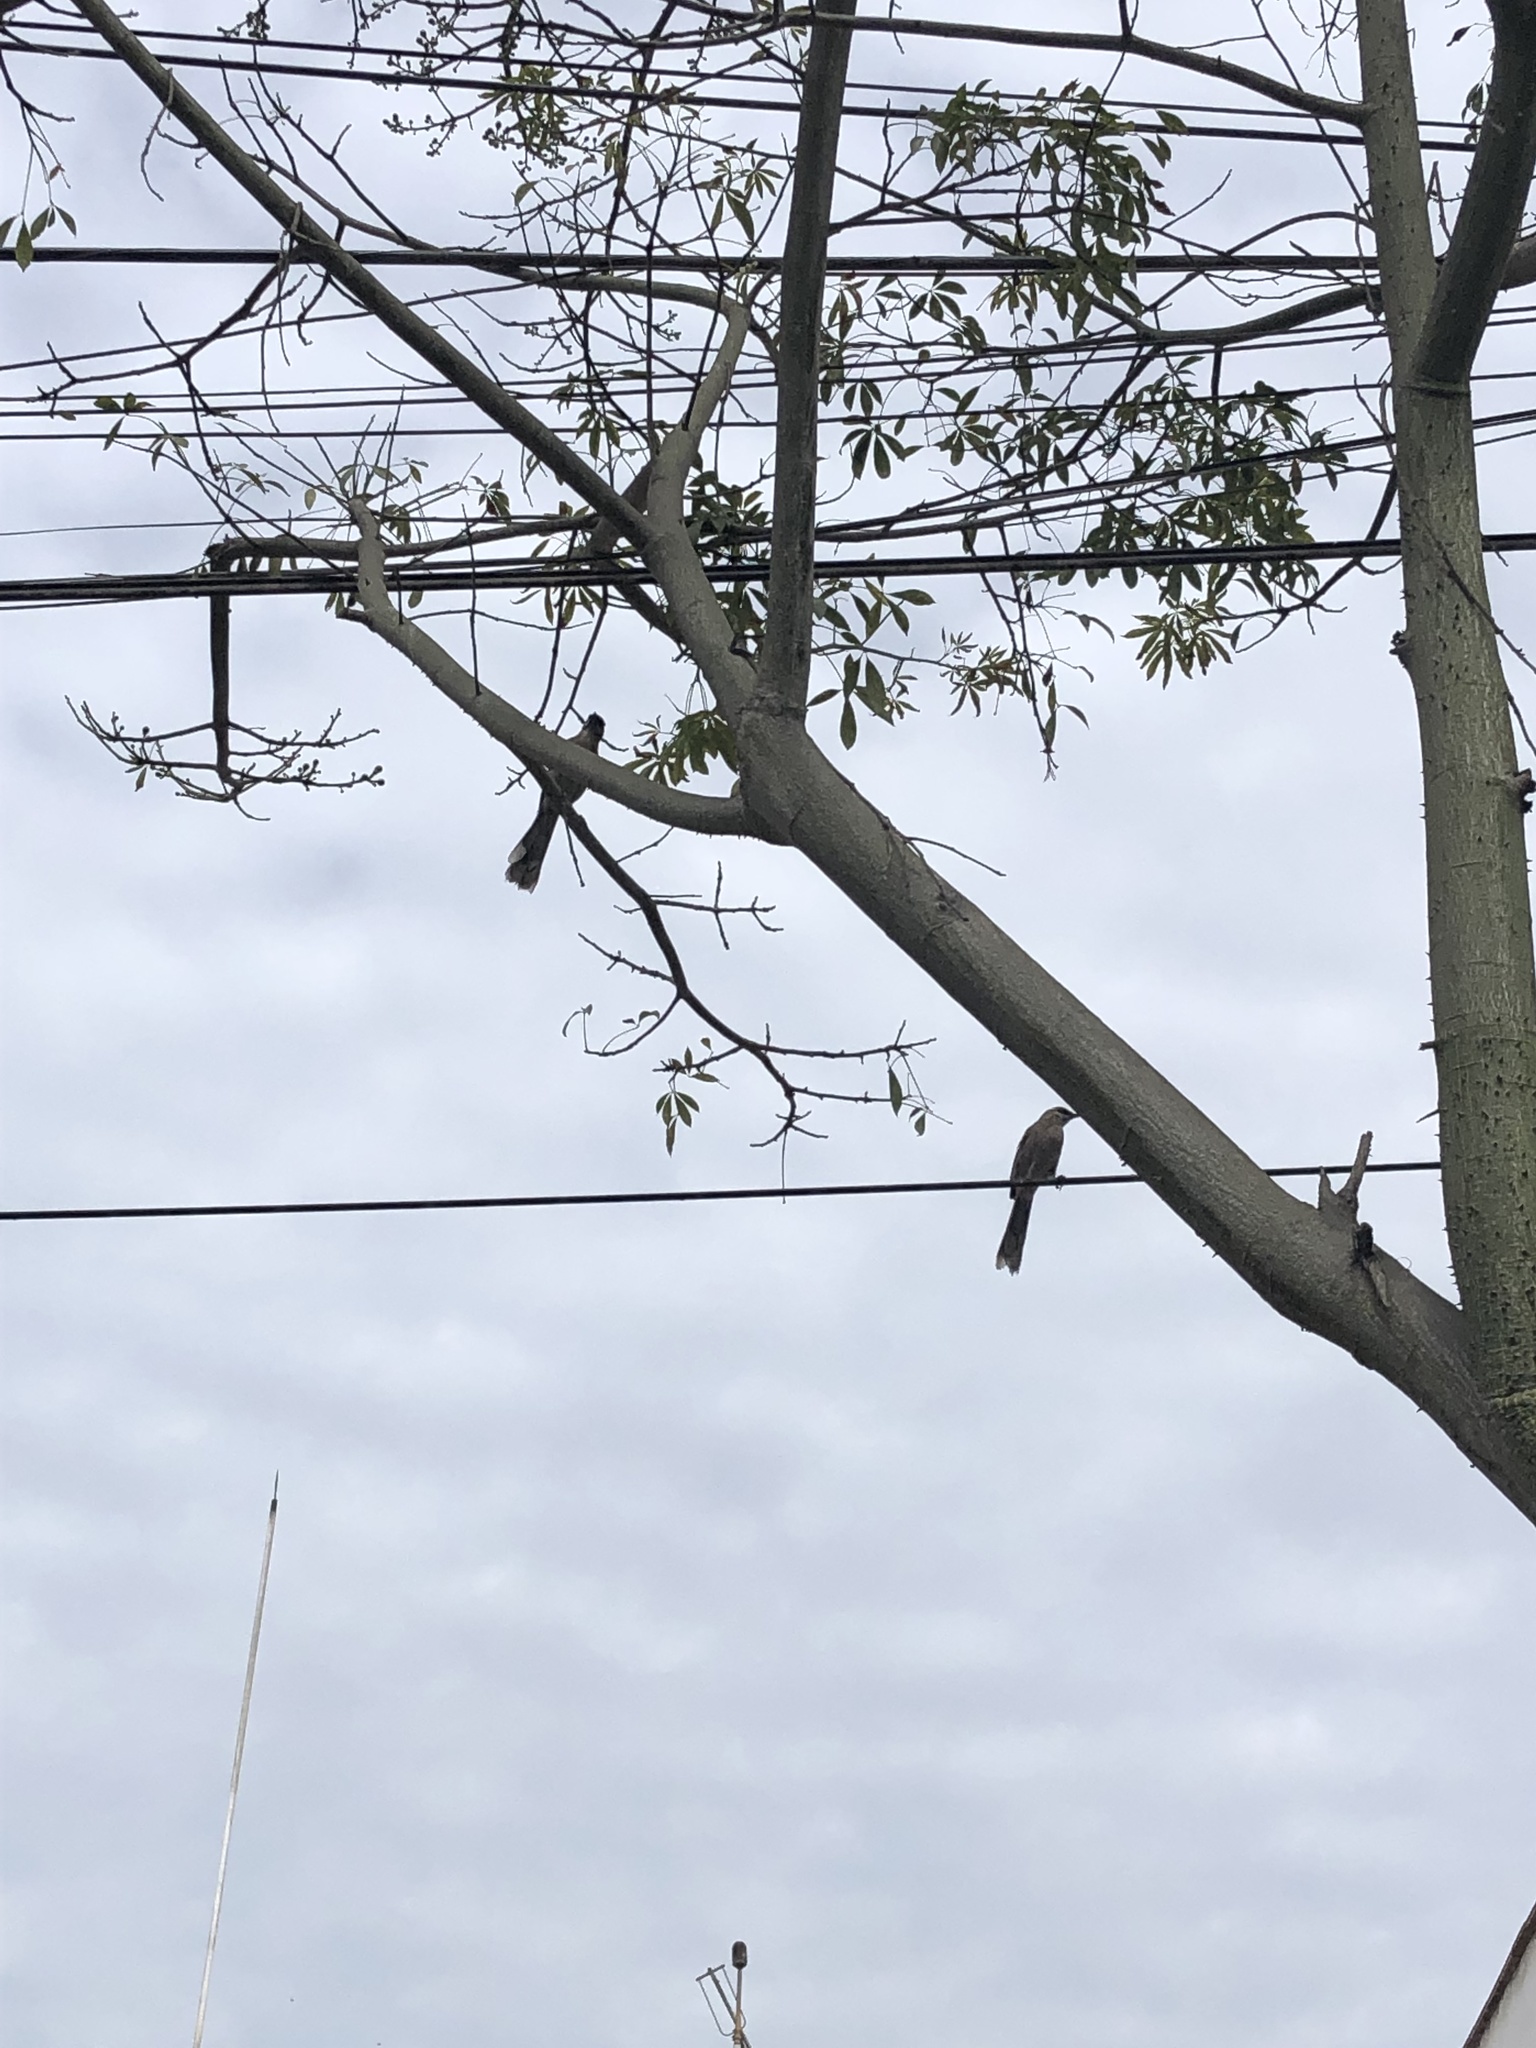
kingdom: Animalia
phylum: Chordata
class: Aves
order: Passeriformes
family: Mimidae
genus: Mimus
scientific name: Mimus longicaudatus
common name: Long-tailed mockingbird
